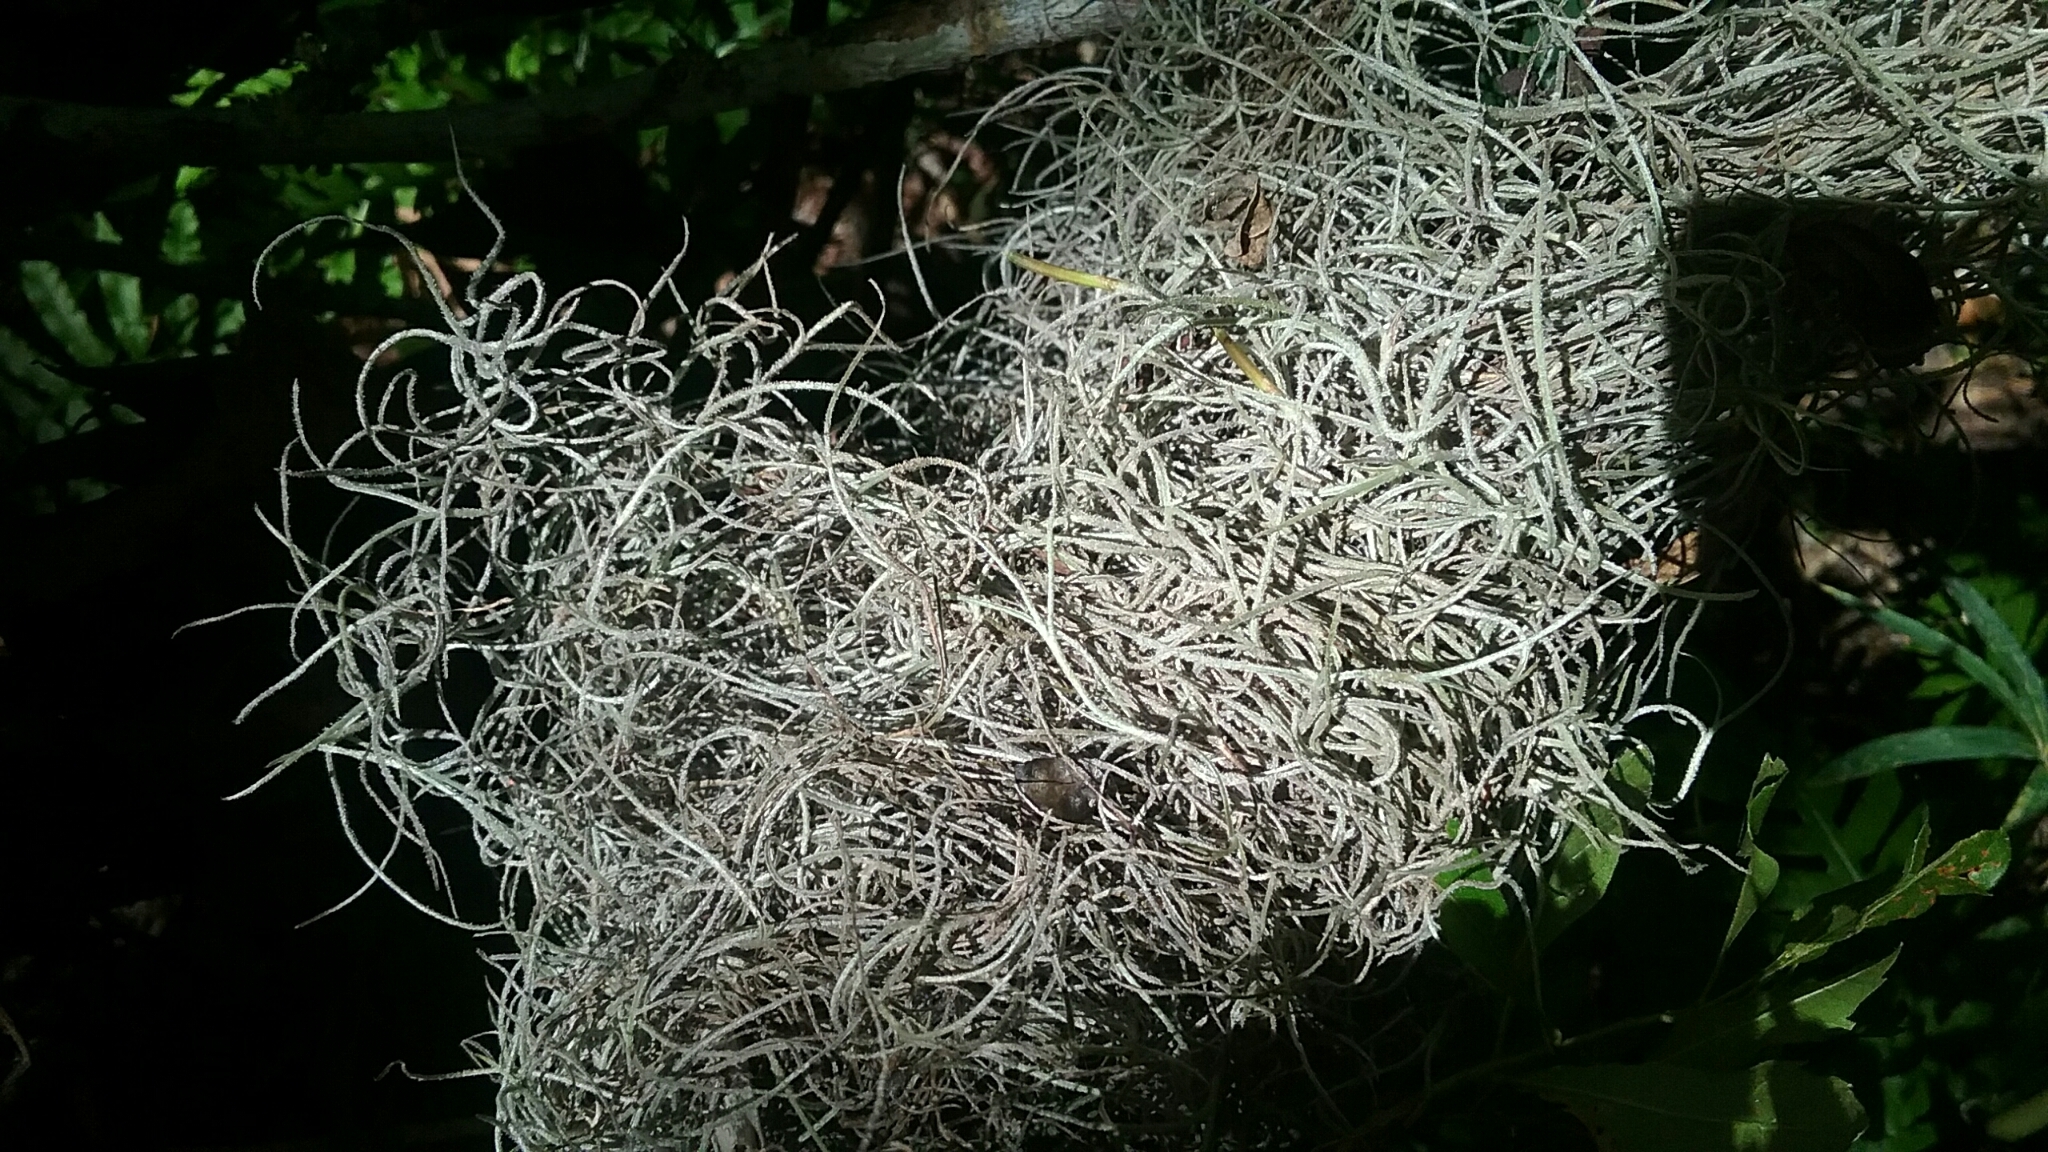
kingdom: Plantae
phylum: Tracheophyta
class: Liliopsida
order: Poales
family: Bromeliaceae
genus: Tillandsia
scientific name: Tillandsia usneoides
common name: Spanish moss
